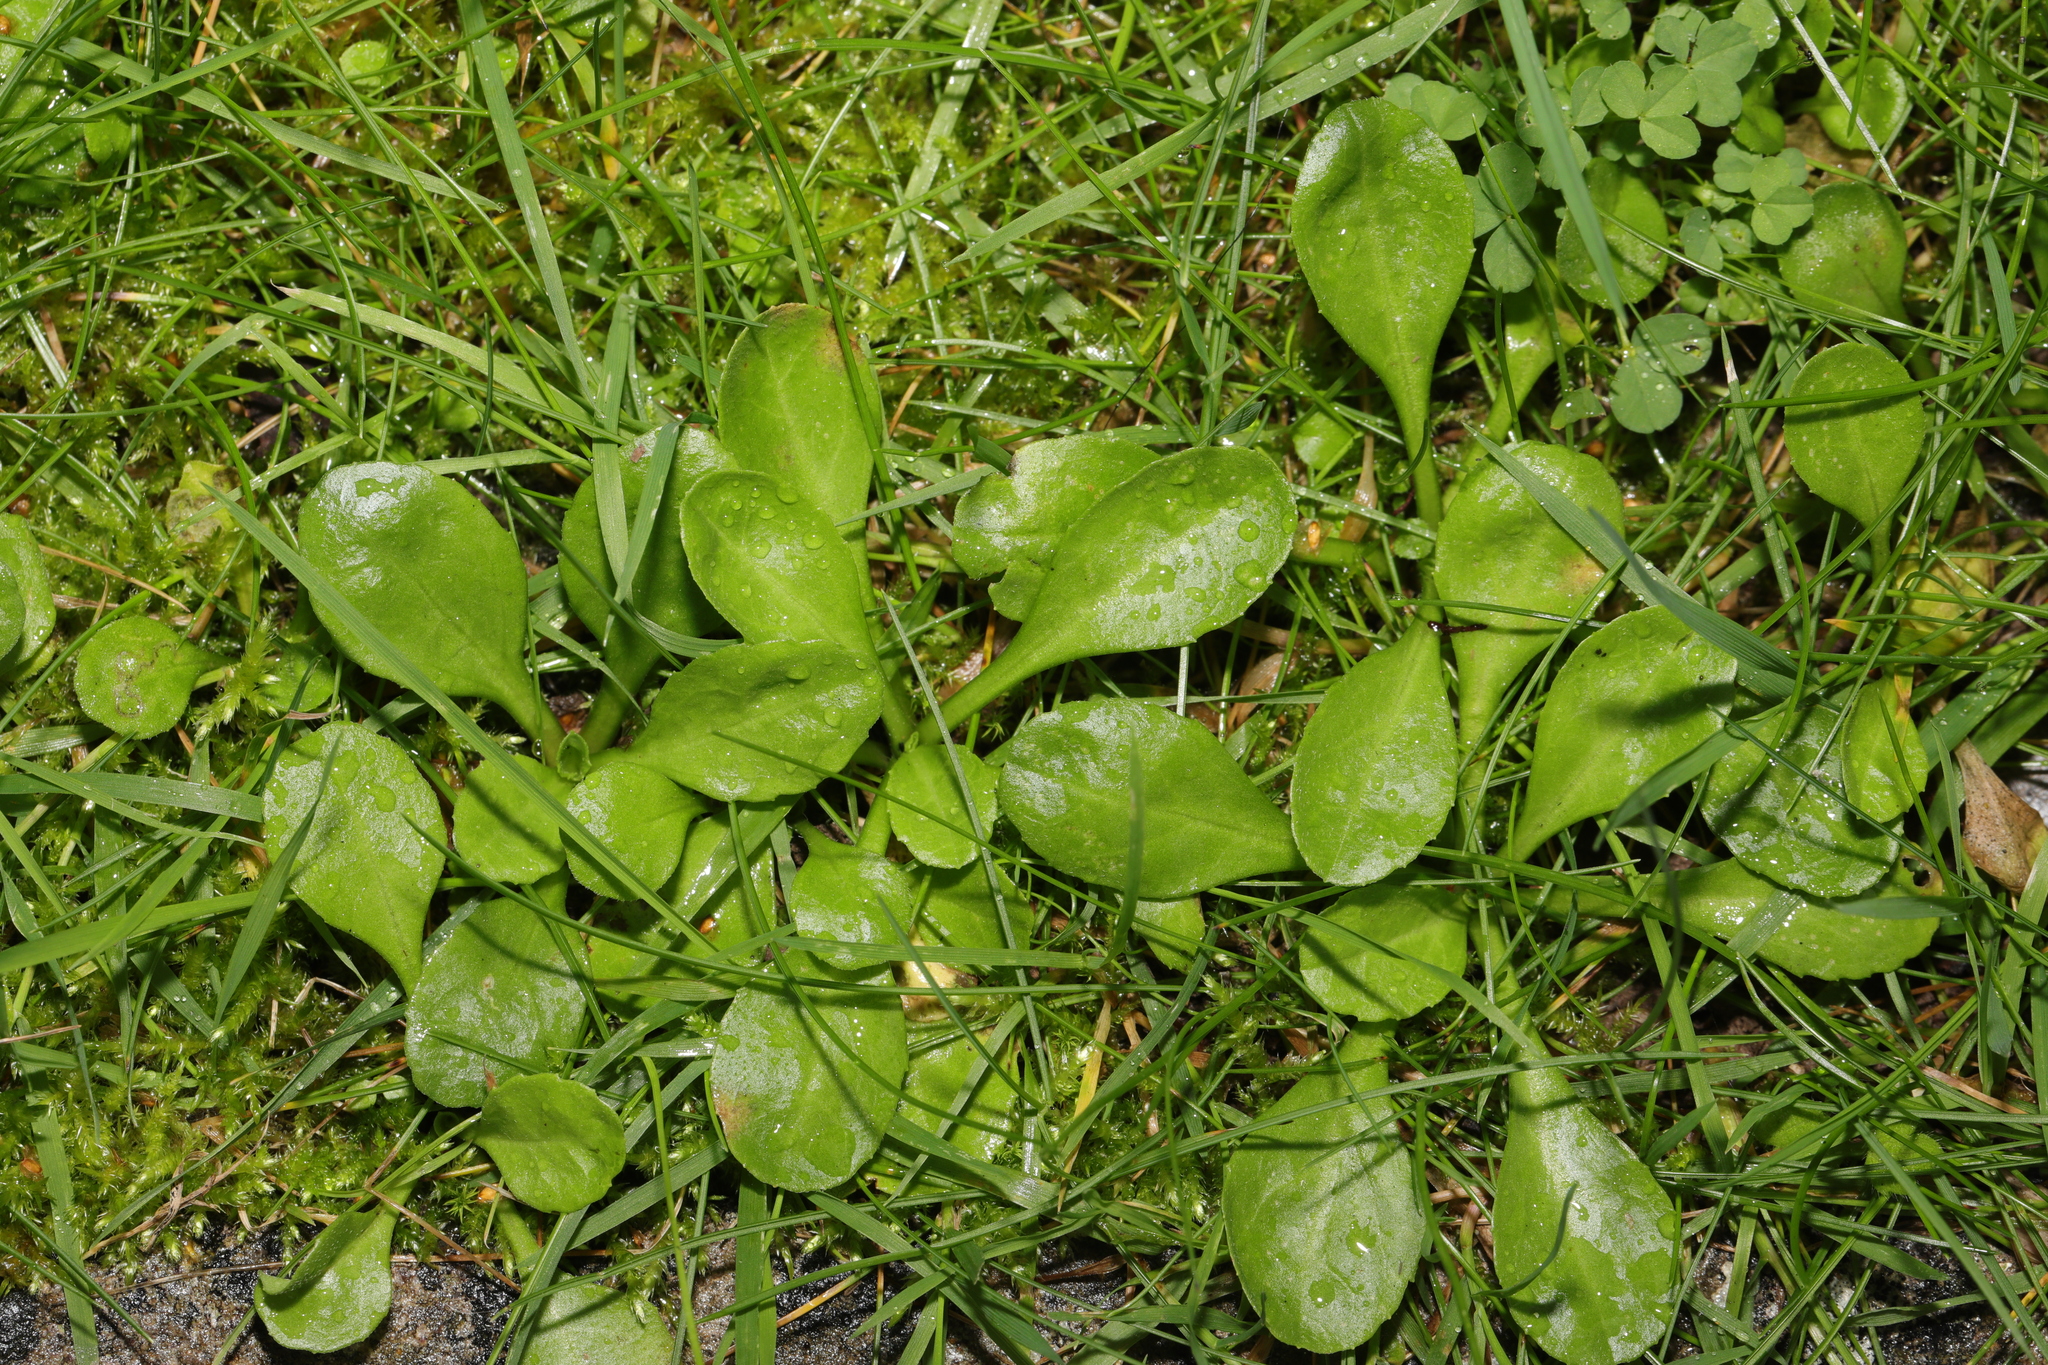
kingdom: Plantae
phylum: Tracheophyta
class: Magnoliopsida
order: Asterales
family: Asteraceae
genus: Bellis
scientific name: Bellis perennis
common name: Lawndaisy
